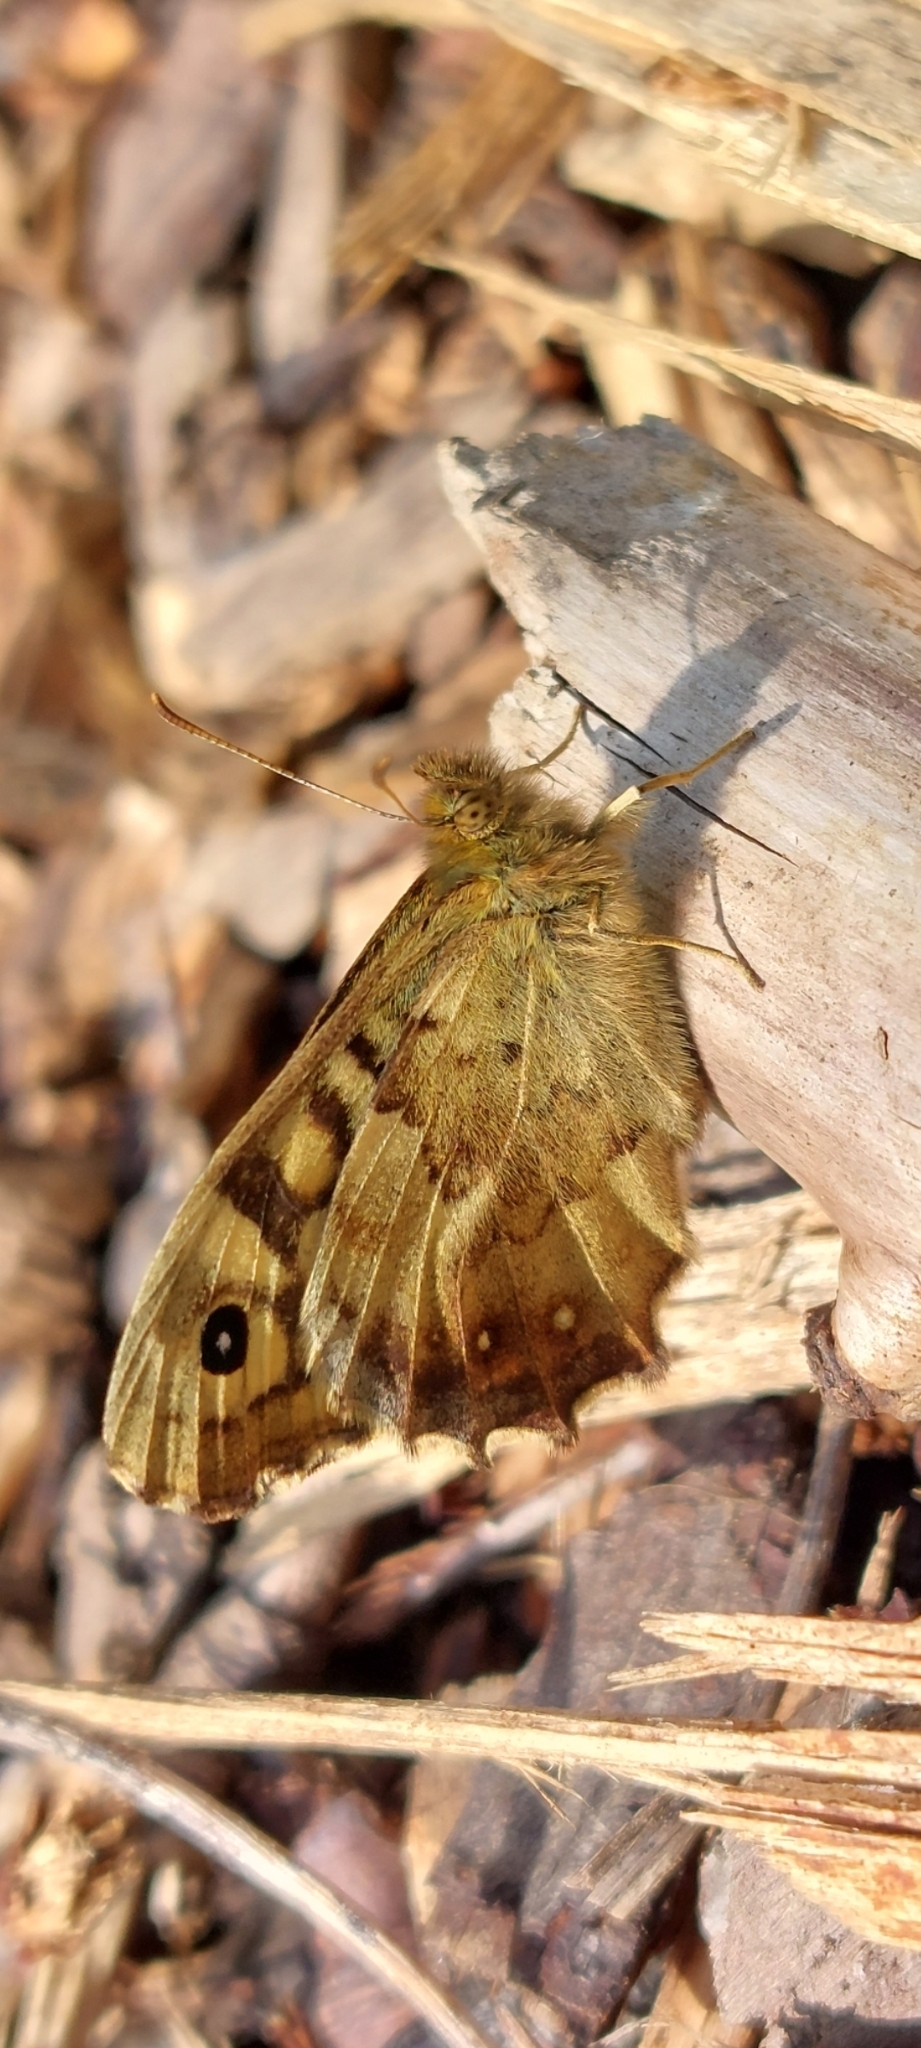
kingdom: Animalia
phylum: Arthropoda
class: Insecta
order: Lepidoptera
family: Nymphalidae
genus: Pararge
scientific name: Pararge aegeria
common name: Speckled wood
